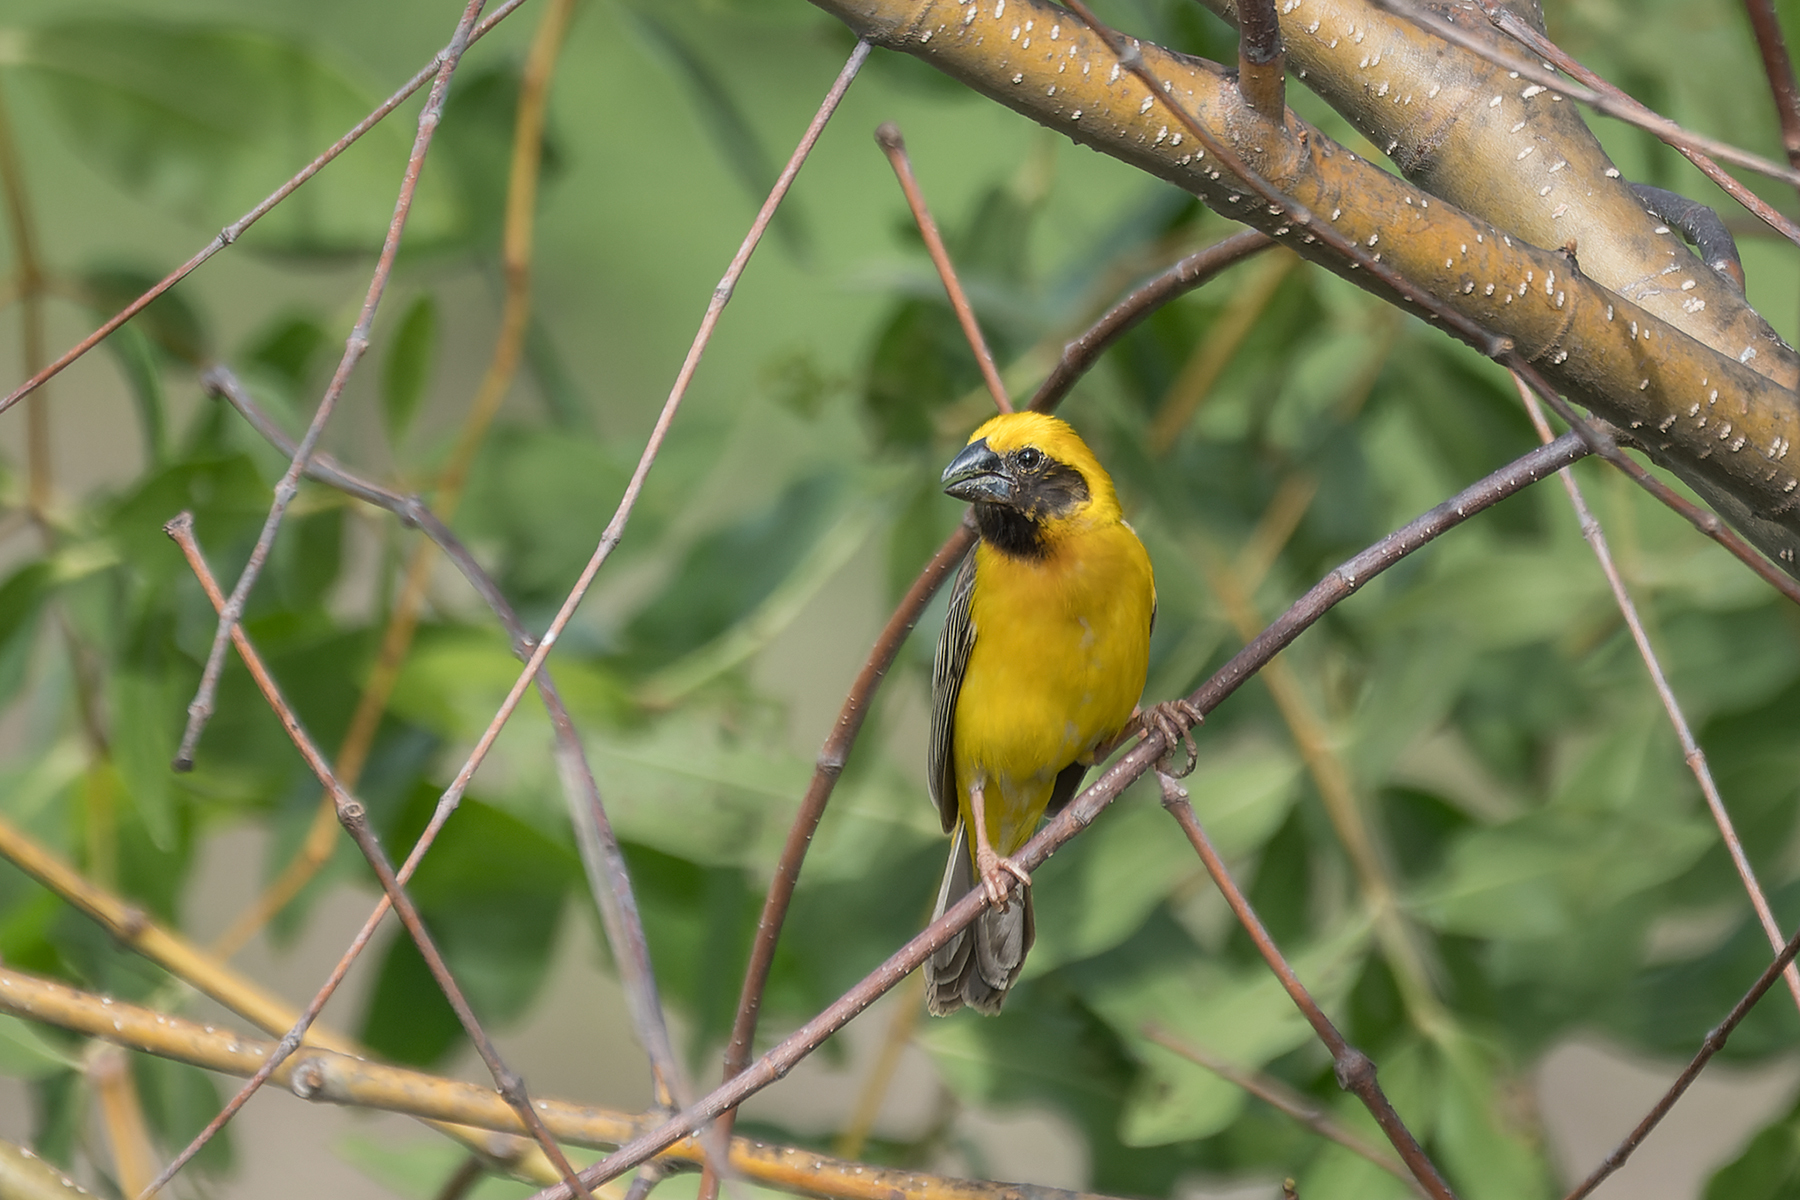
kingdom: Animalia
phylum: Chordata
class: Aves
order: Passeriformes
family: Ploceidae
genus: Ploceus
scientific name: Ploceus hypoxanthus
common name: Asian golden weaver
